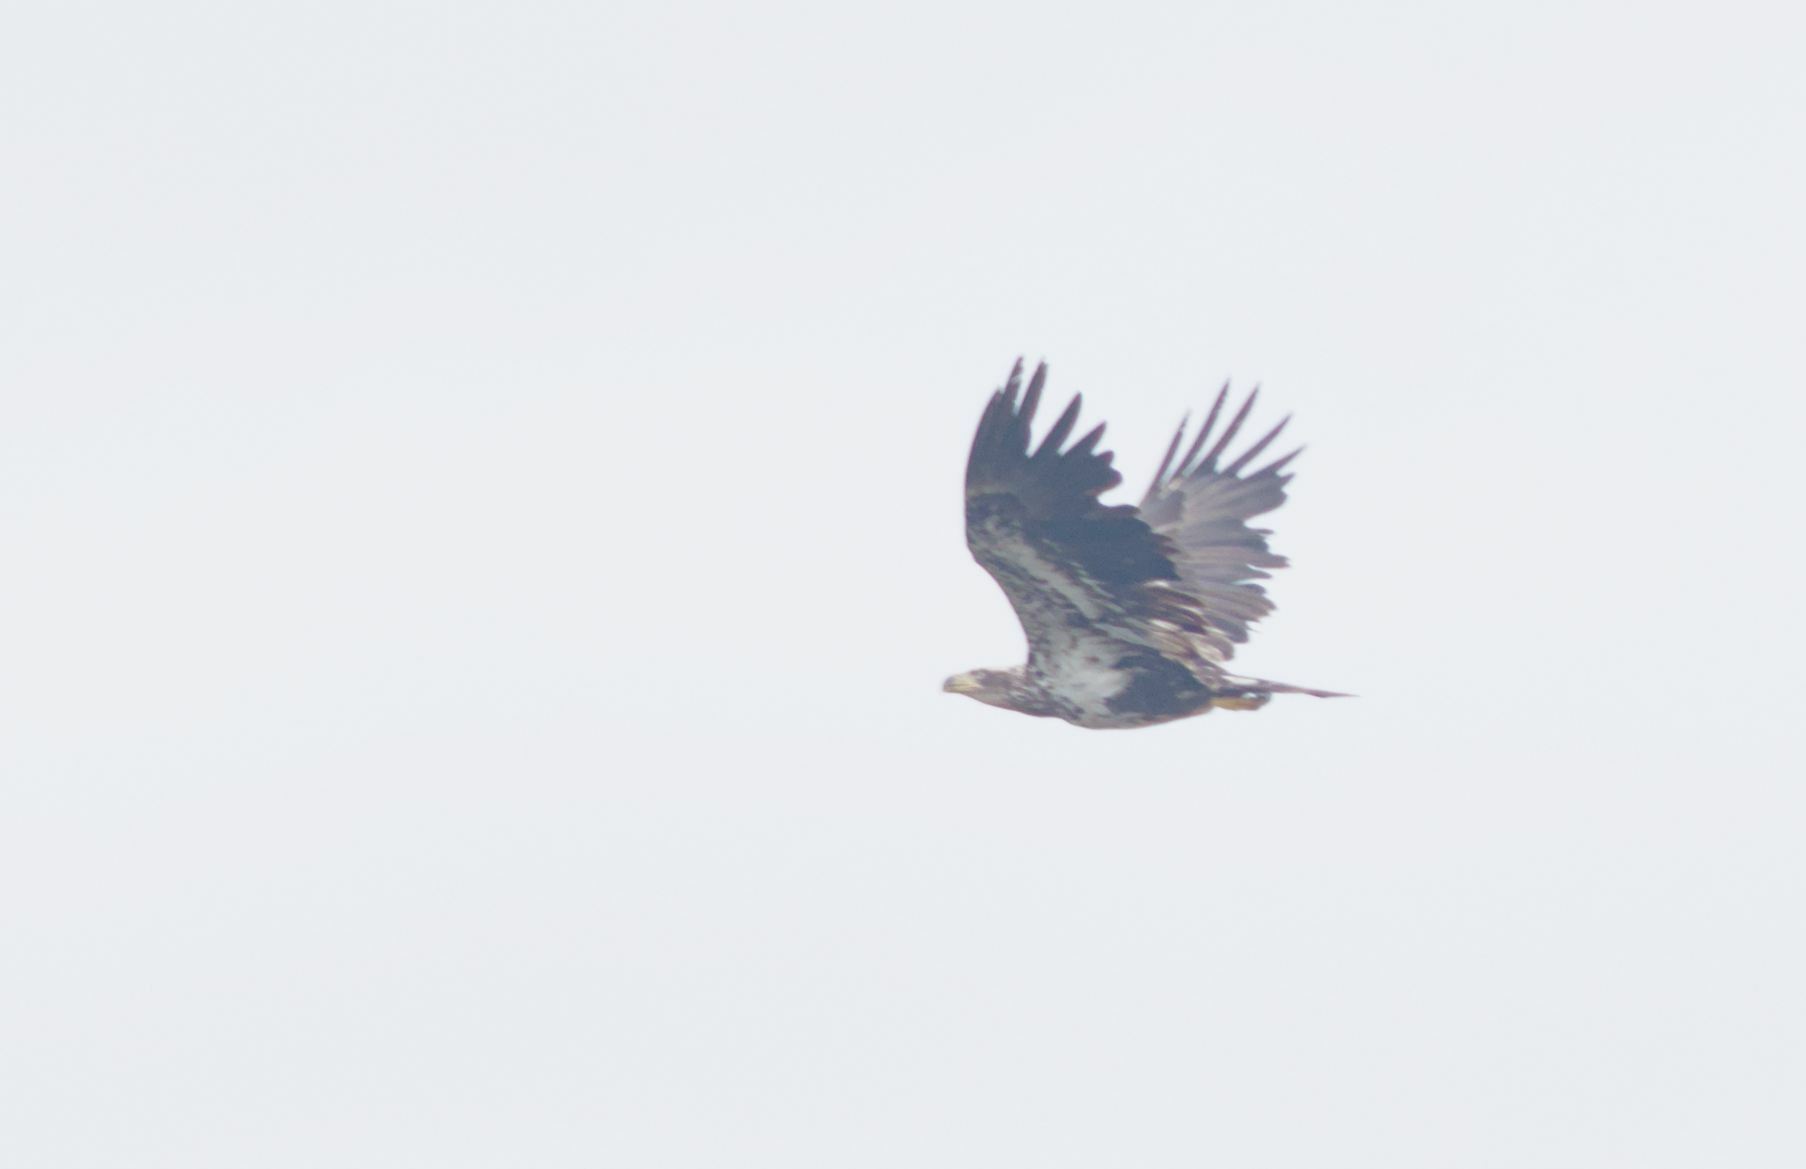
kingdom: Animalia
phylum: Chordata
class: Aves
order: Accipitriformes
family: Accipitridae
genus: Haliaeetus
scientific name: Haliaeetus leucocephalus
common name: Bald eagle
